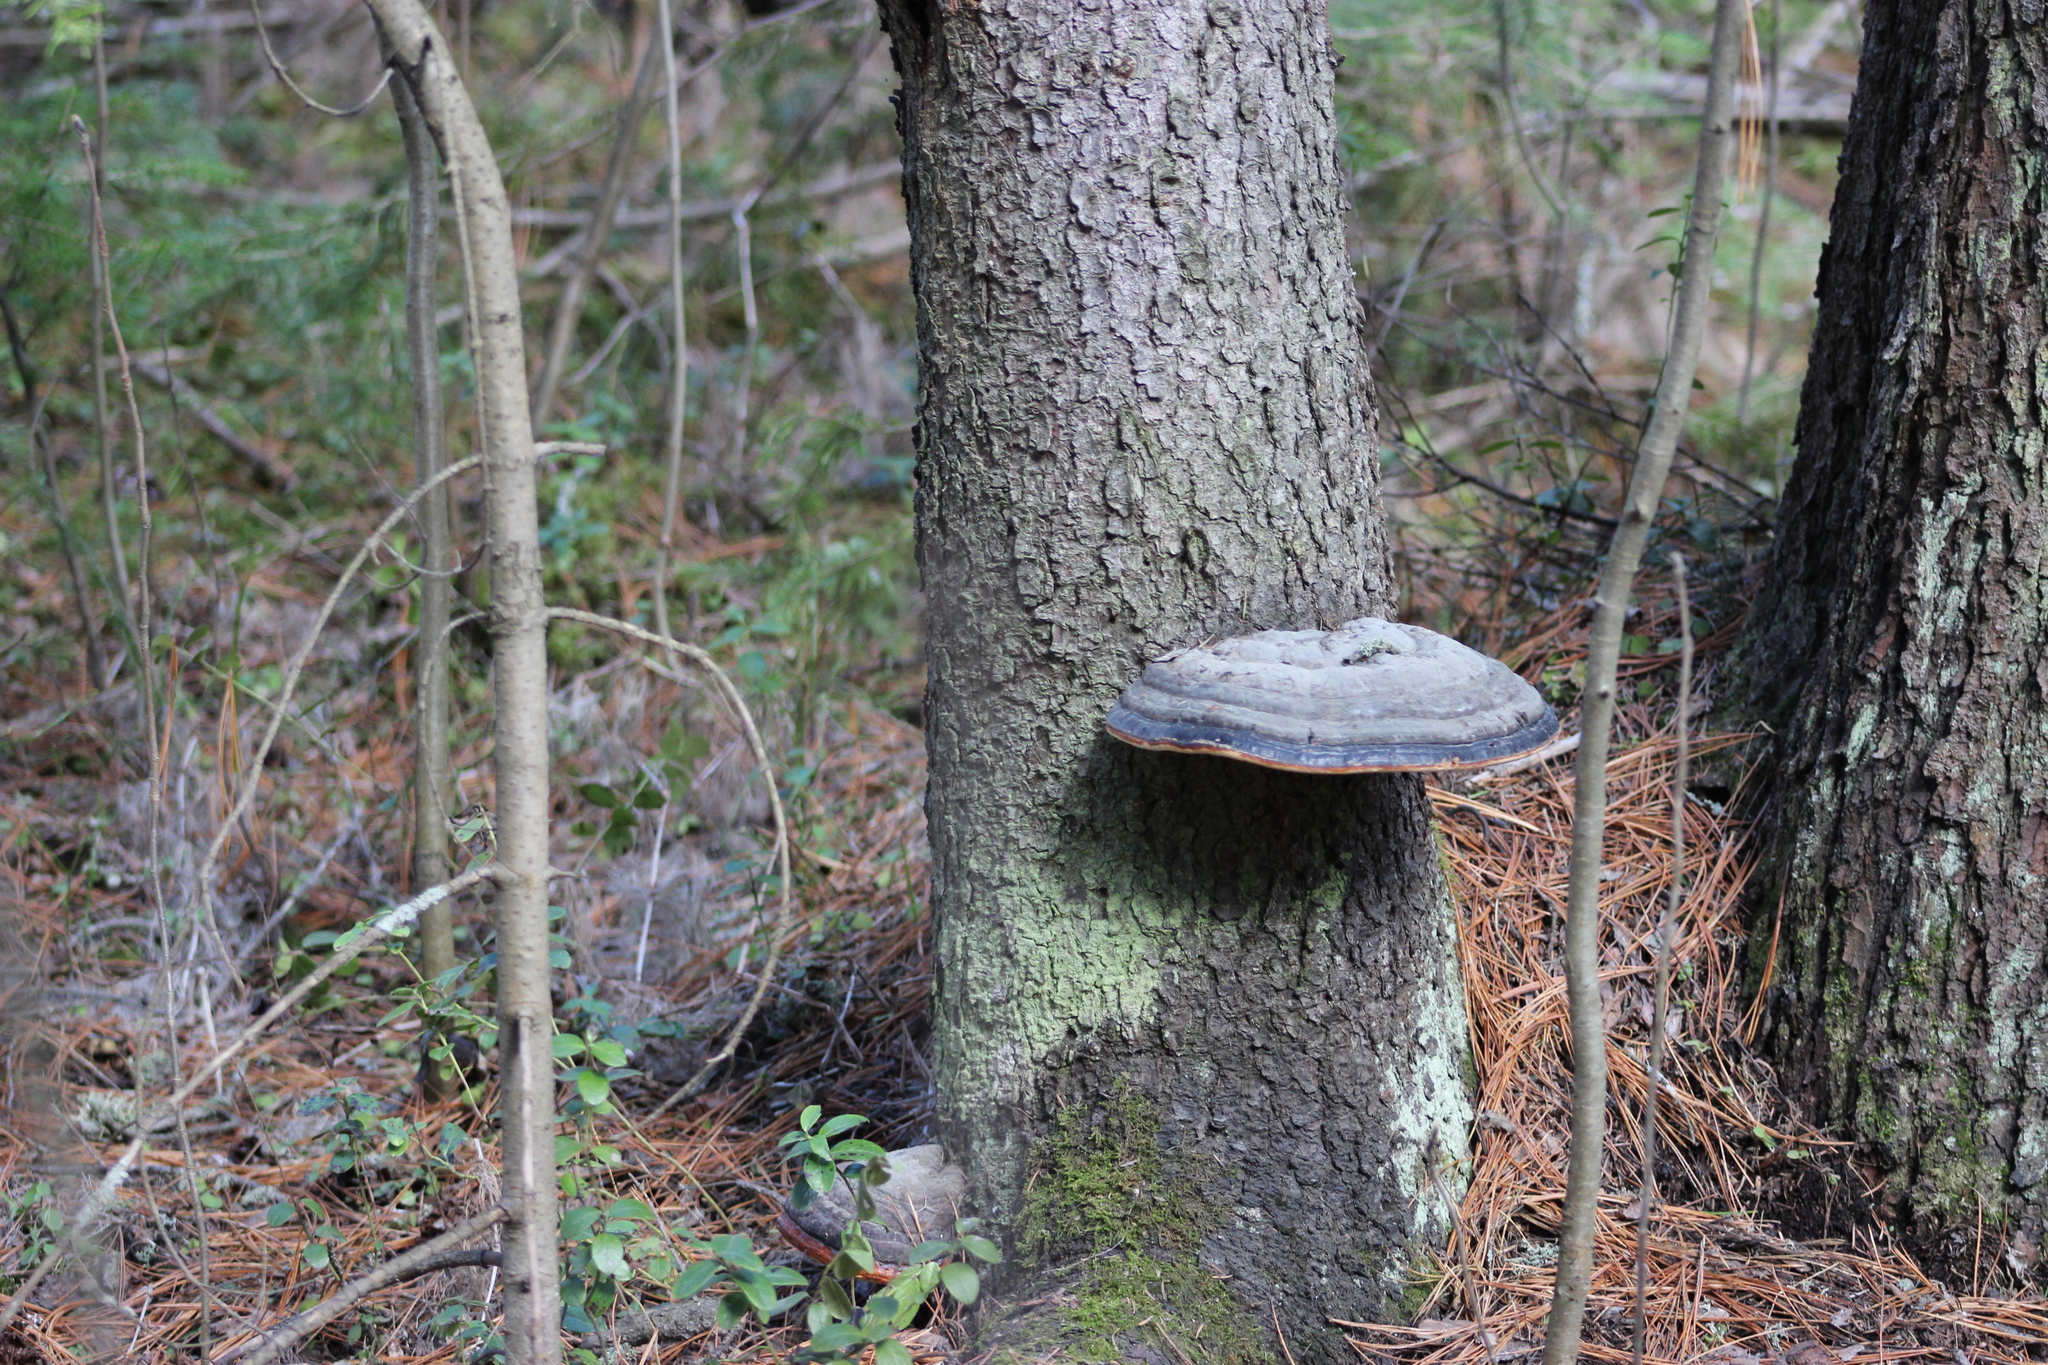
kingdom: Fungi
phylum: Basidiomycota
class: Agaricomycetes
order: Polyporales
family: Fomitopsidaceae
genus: Fomitopsis
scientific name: Fomitopsis pinicola
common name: Red-belted bracket
